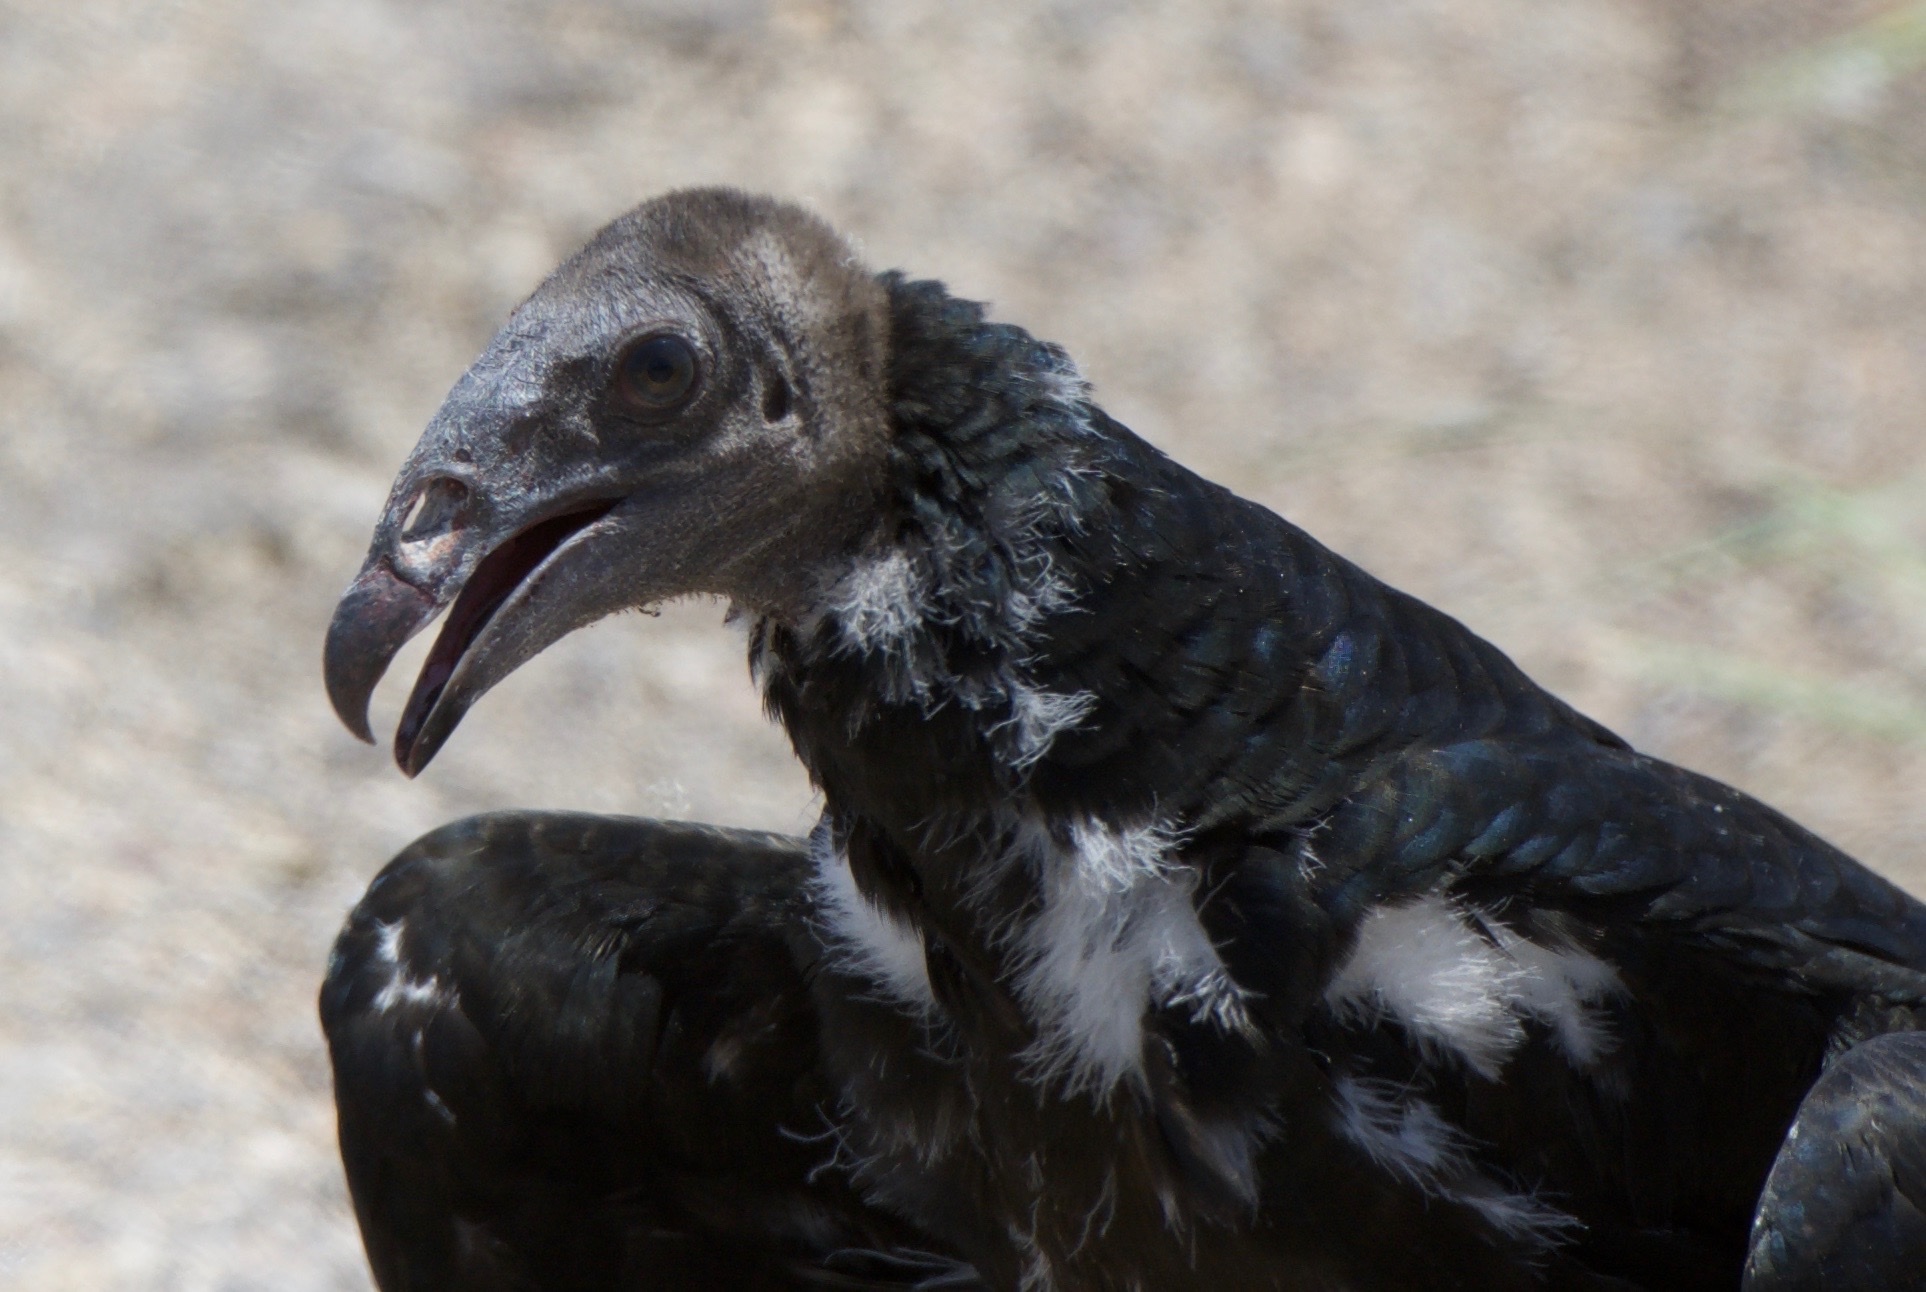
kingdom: Animalia
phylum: Chordata
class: Aves
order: Accipitriformes
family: Cathartidae
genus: Cathartes
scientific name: Cathartes aura
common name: Turkey vulture
